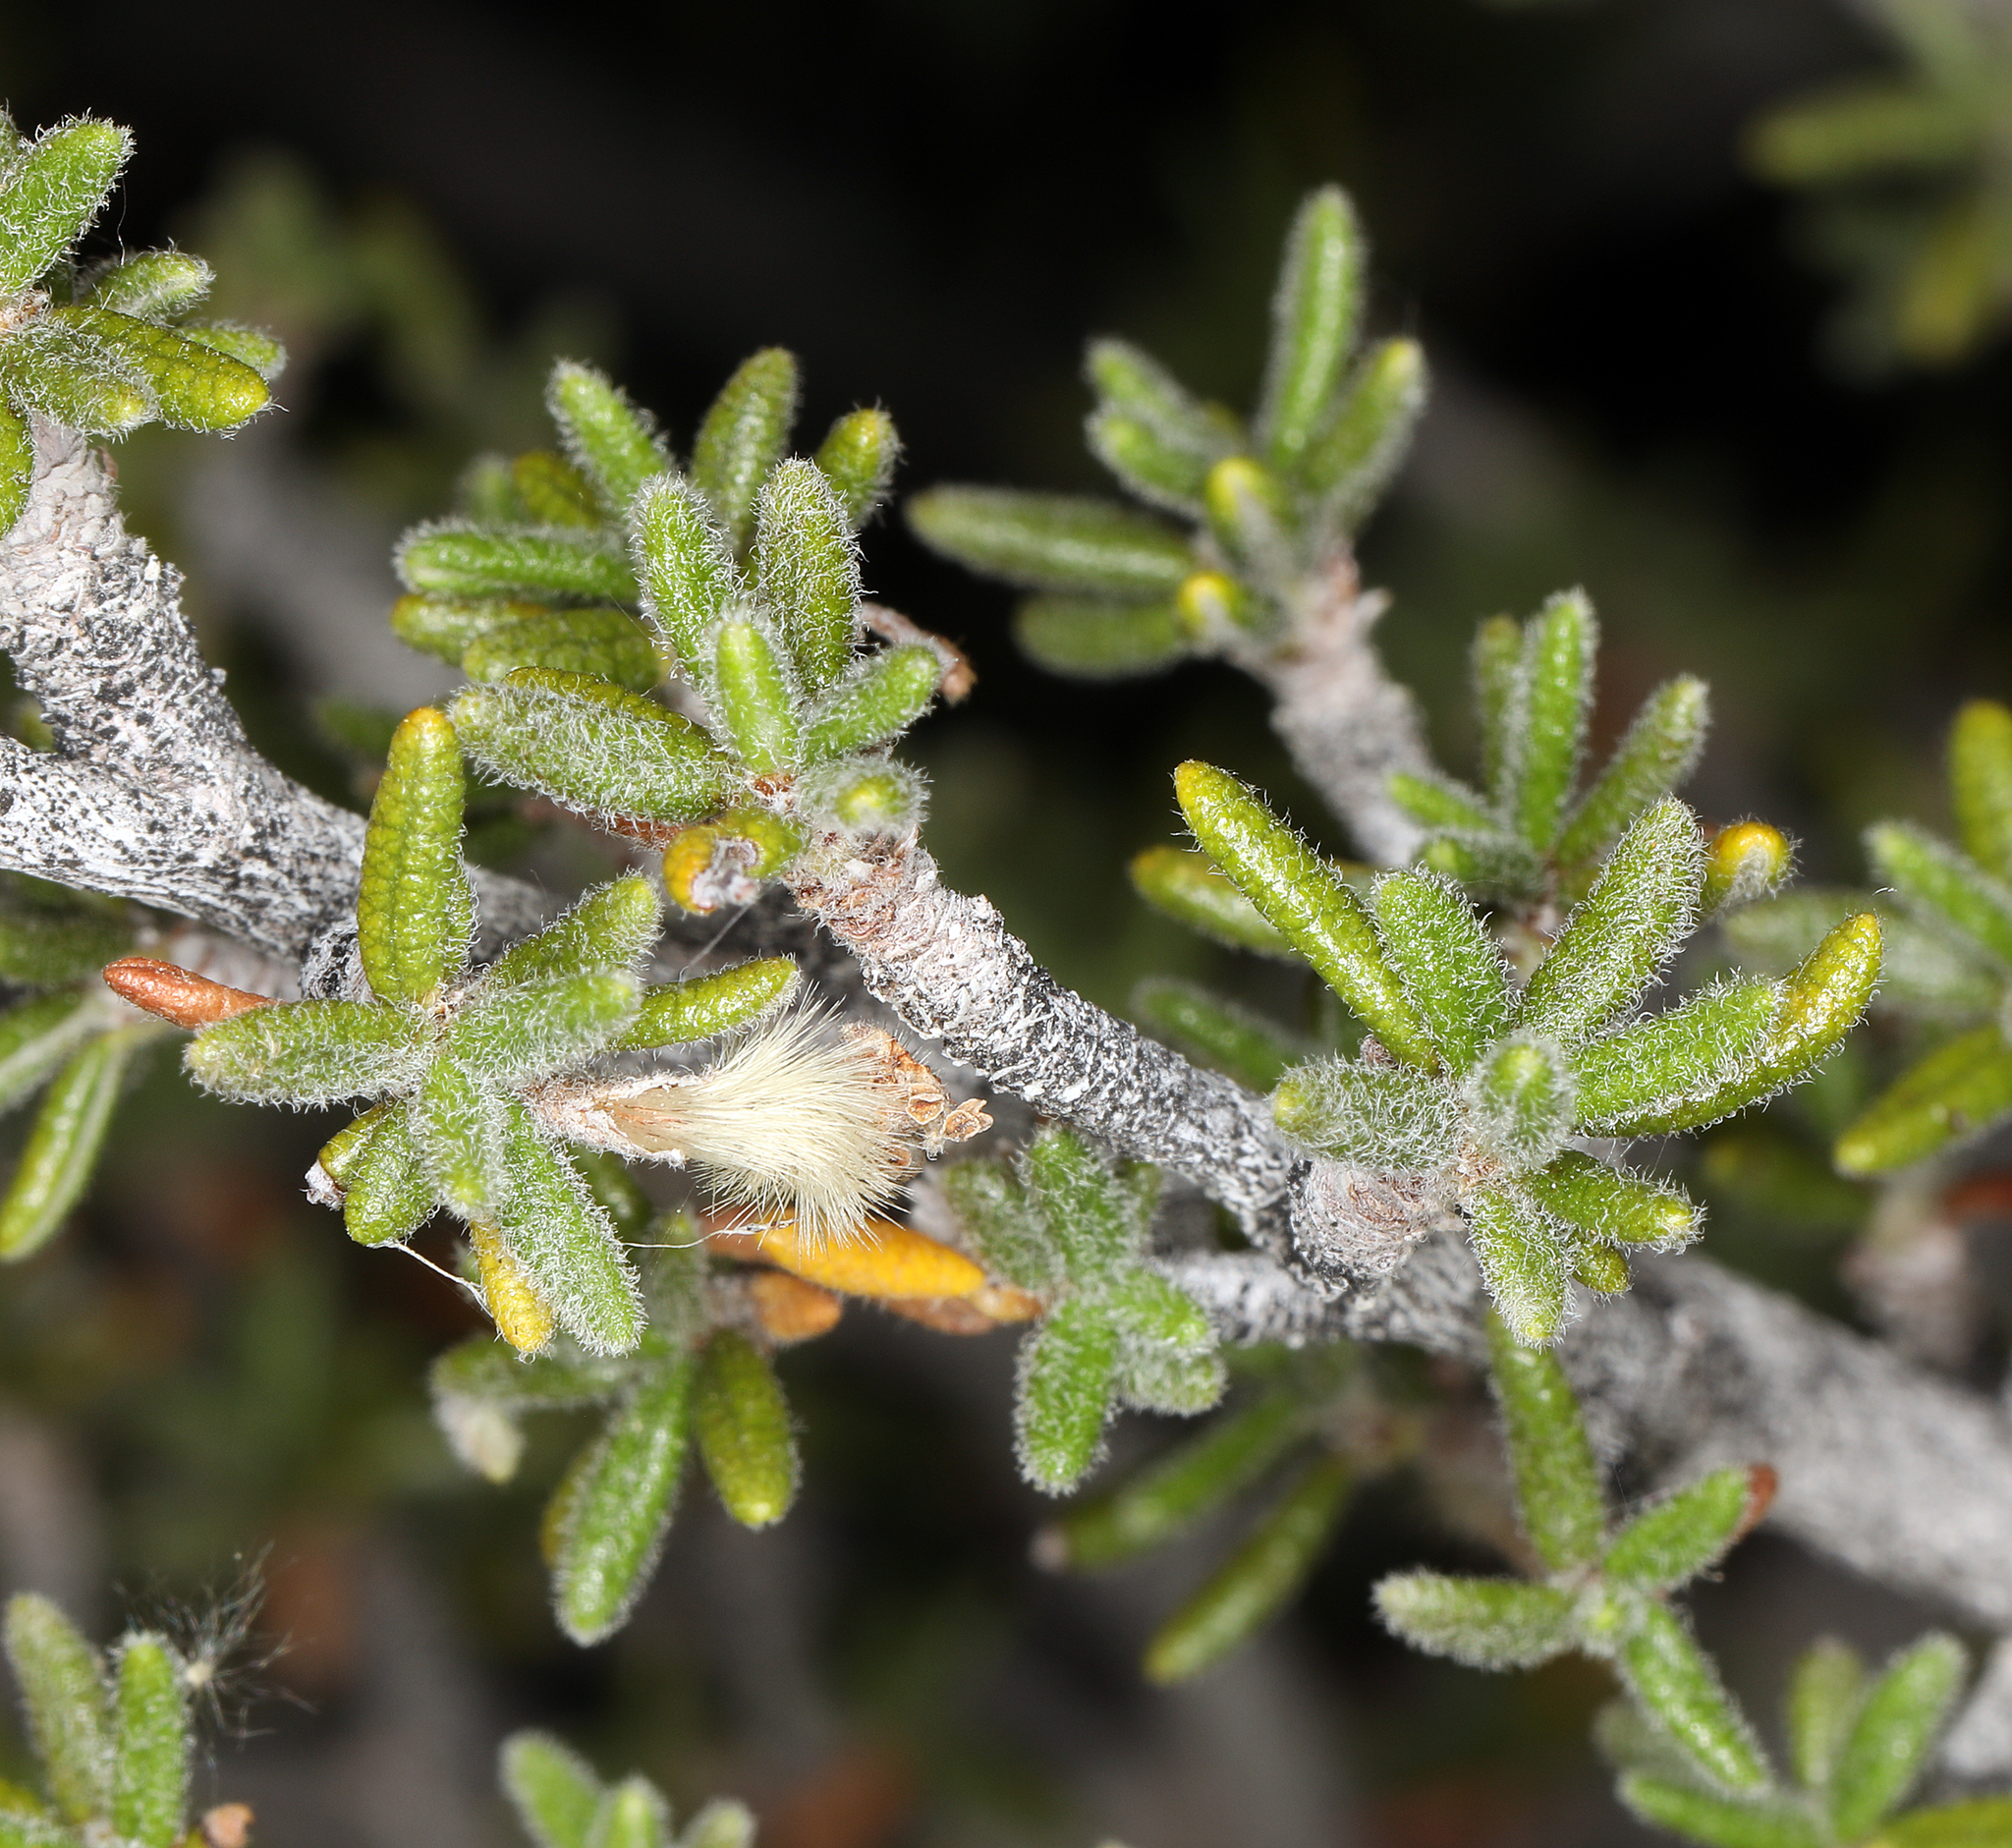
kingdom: Plantae
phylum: Tracheophyta
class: Magnoliopsida
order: Rosales
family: Rosaceae
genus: Cercocarpus
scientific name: Cercocarpus intricatus
